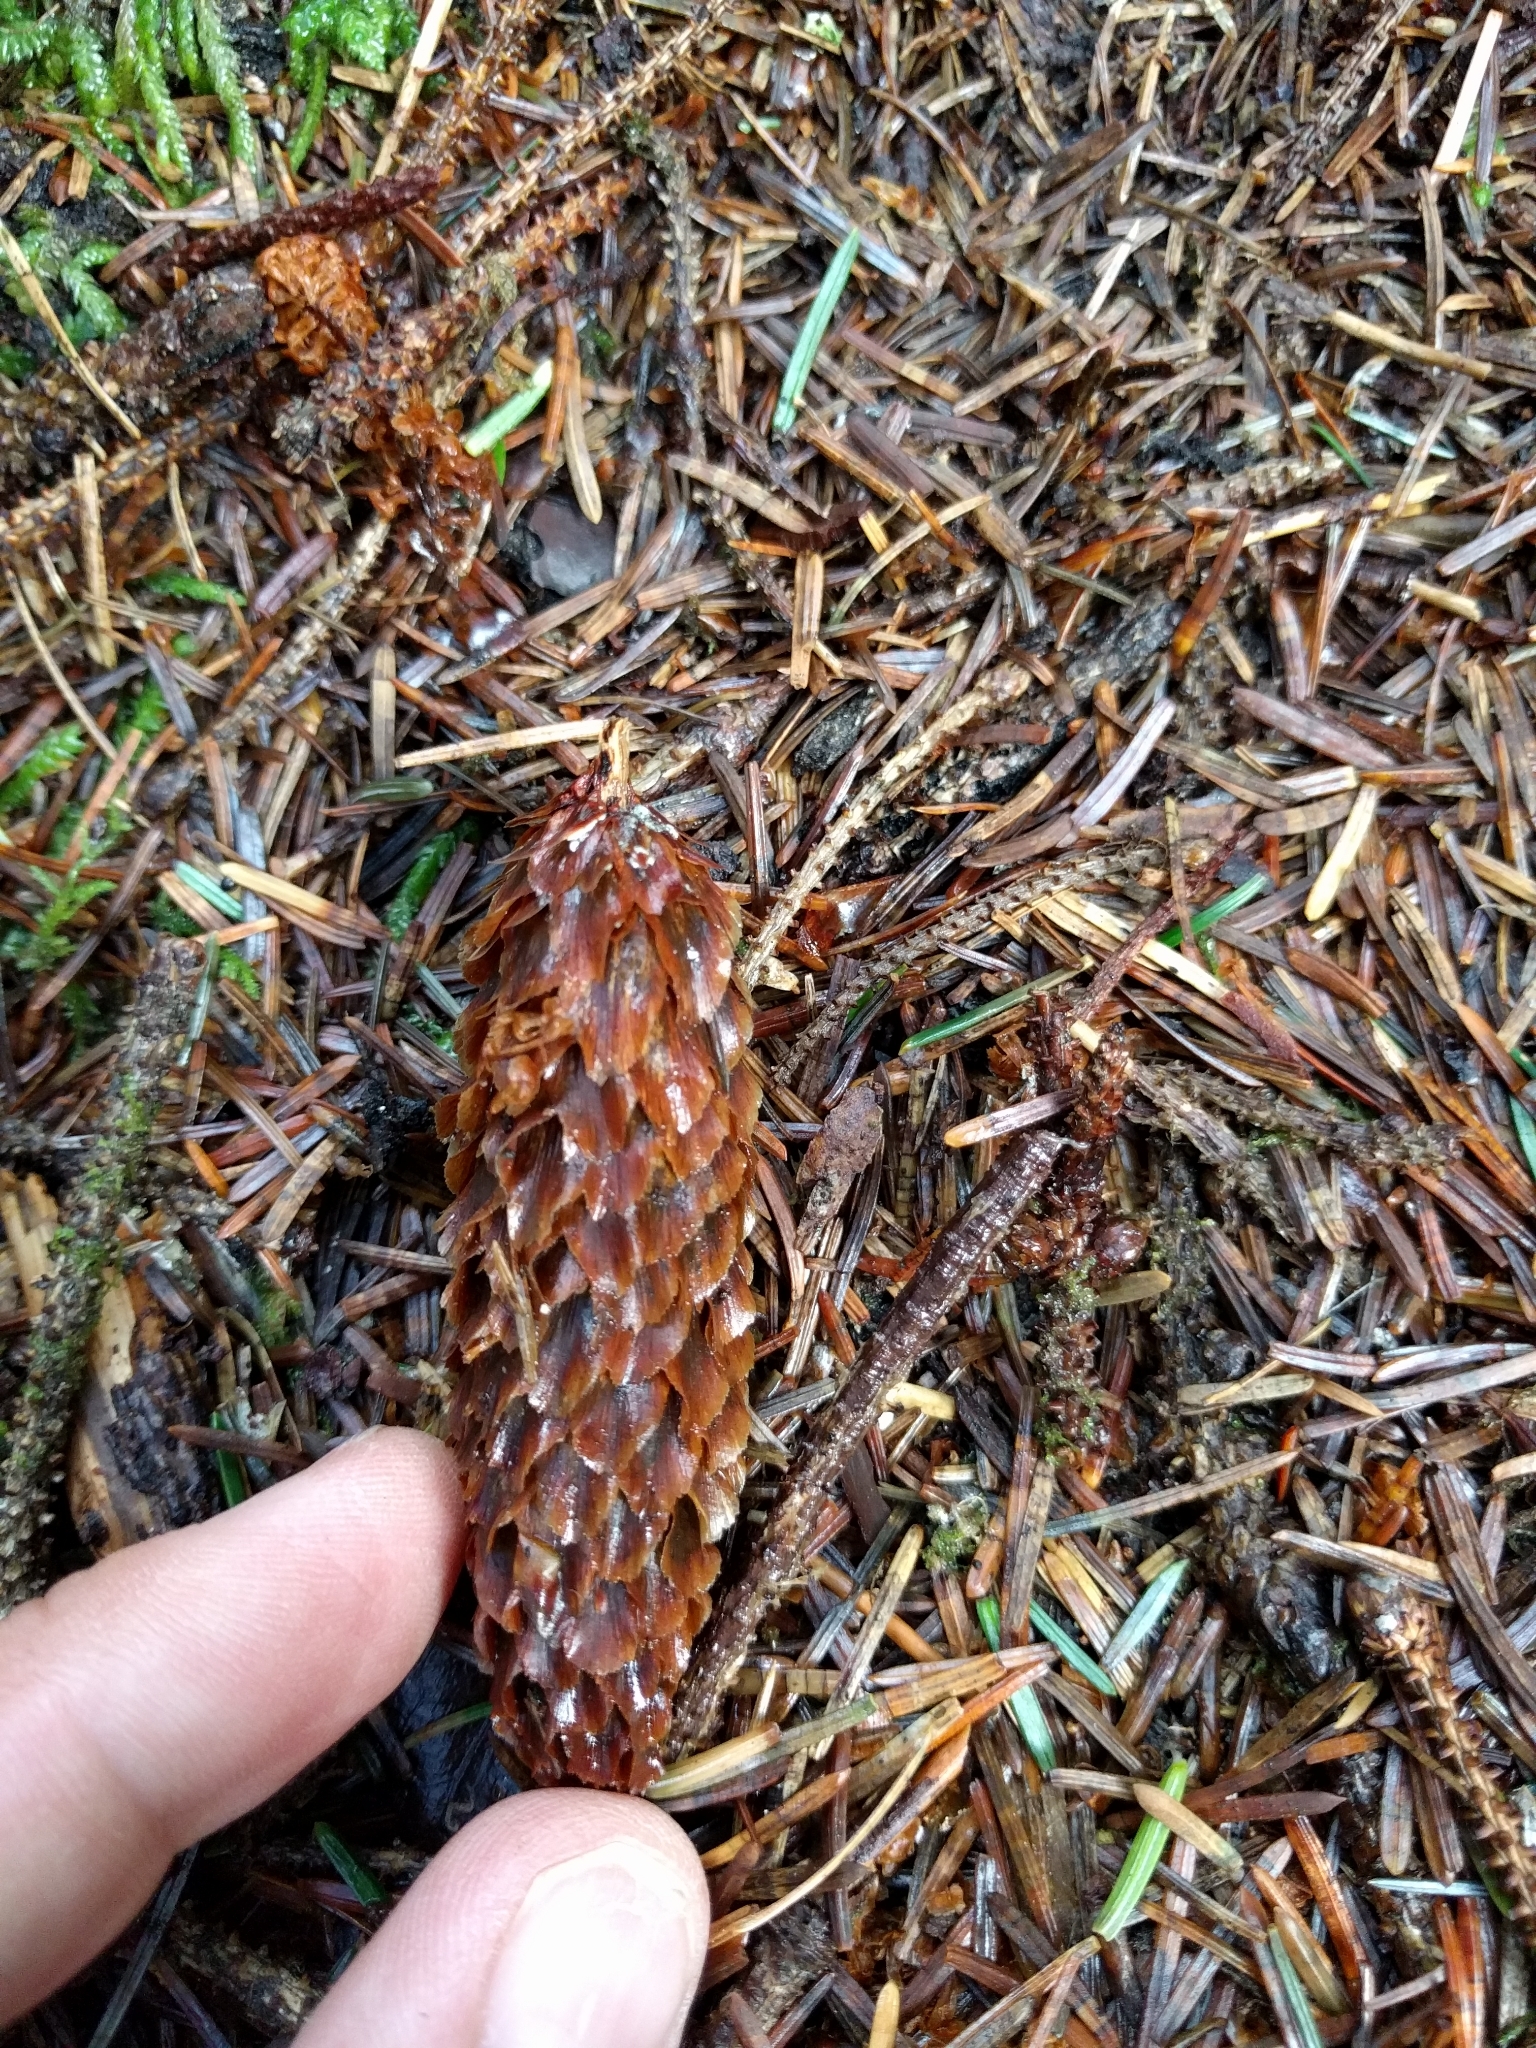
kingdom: Plantae
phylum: Tracheophyta
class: Pinopsida
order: Pinales
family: Pinaceae
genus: Picea
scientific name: Picea sitchensis
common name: Sitka spruce
